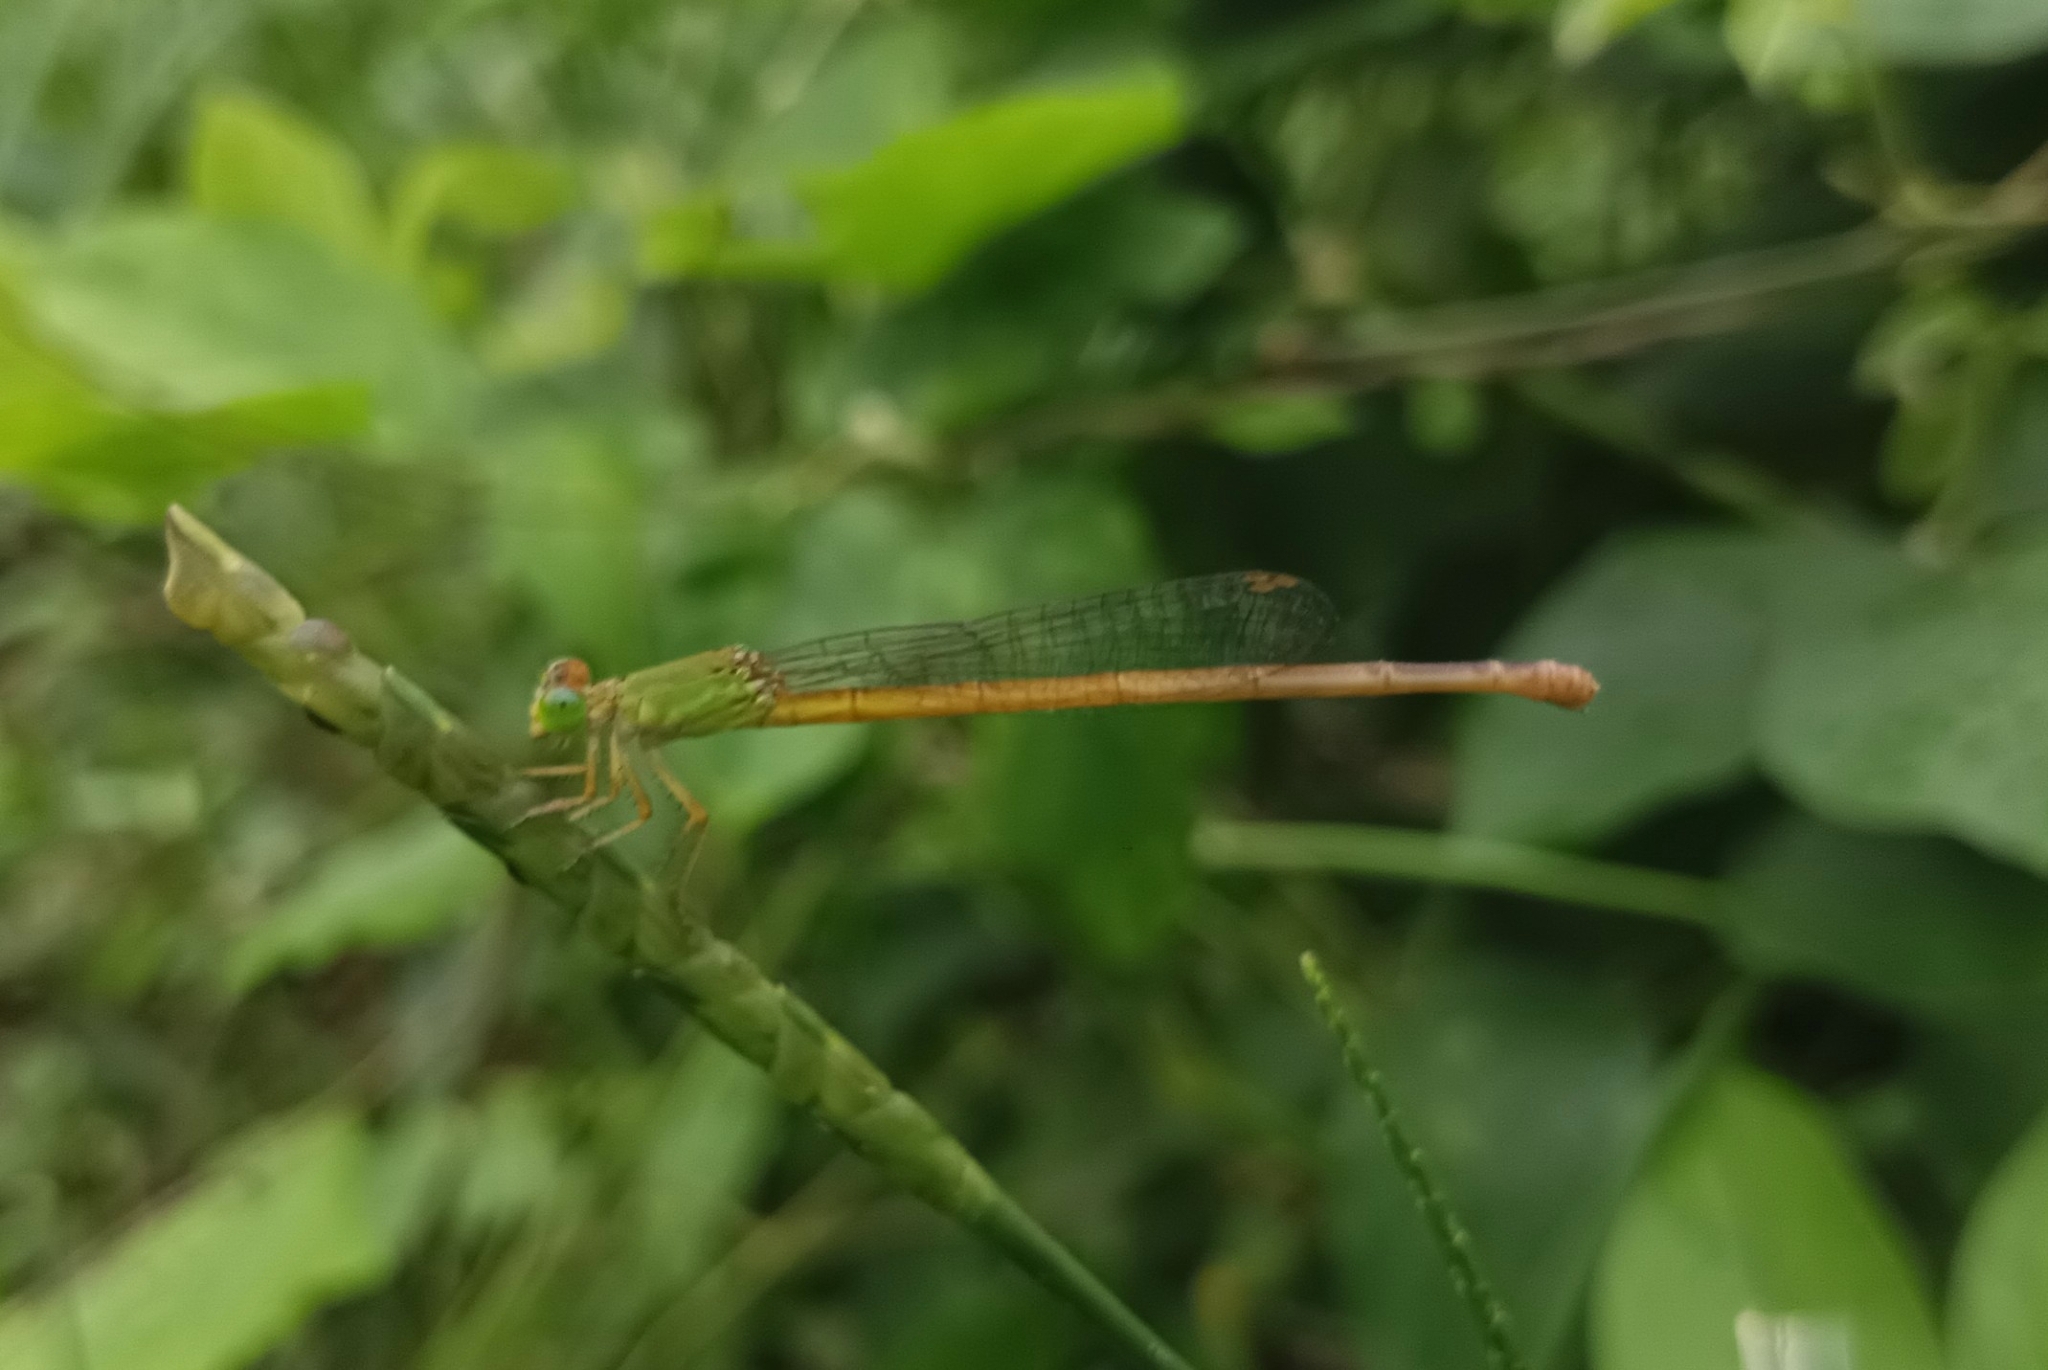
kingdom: Animalia
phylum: Arthropoda
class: Insecta
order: Odonata
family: Coenagrionidae
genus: Ceriagrion
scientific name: Ceriagrion coromandelianum
